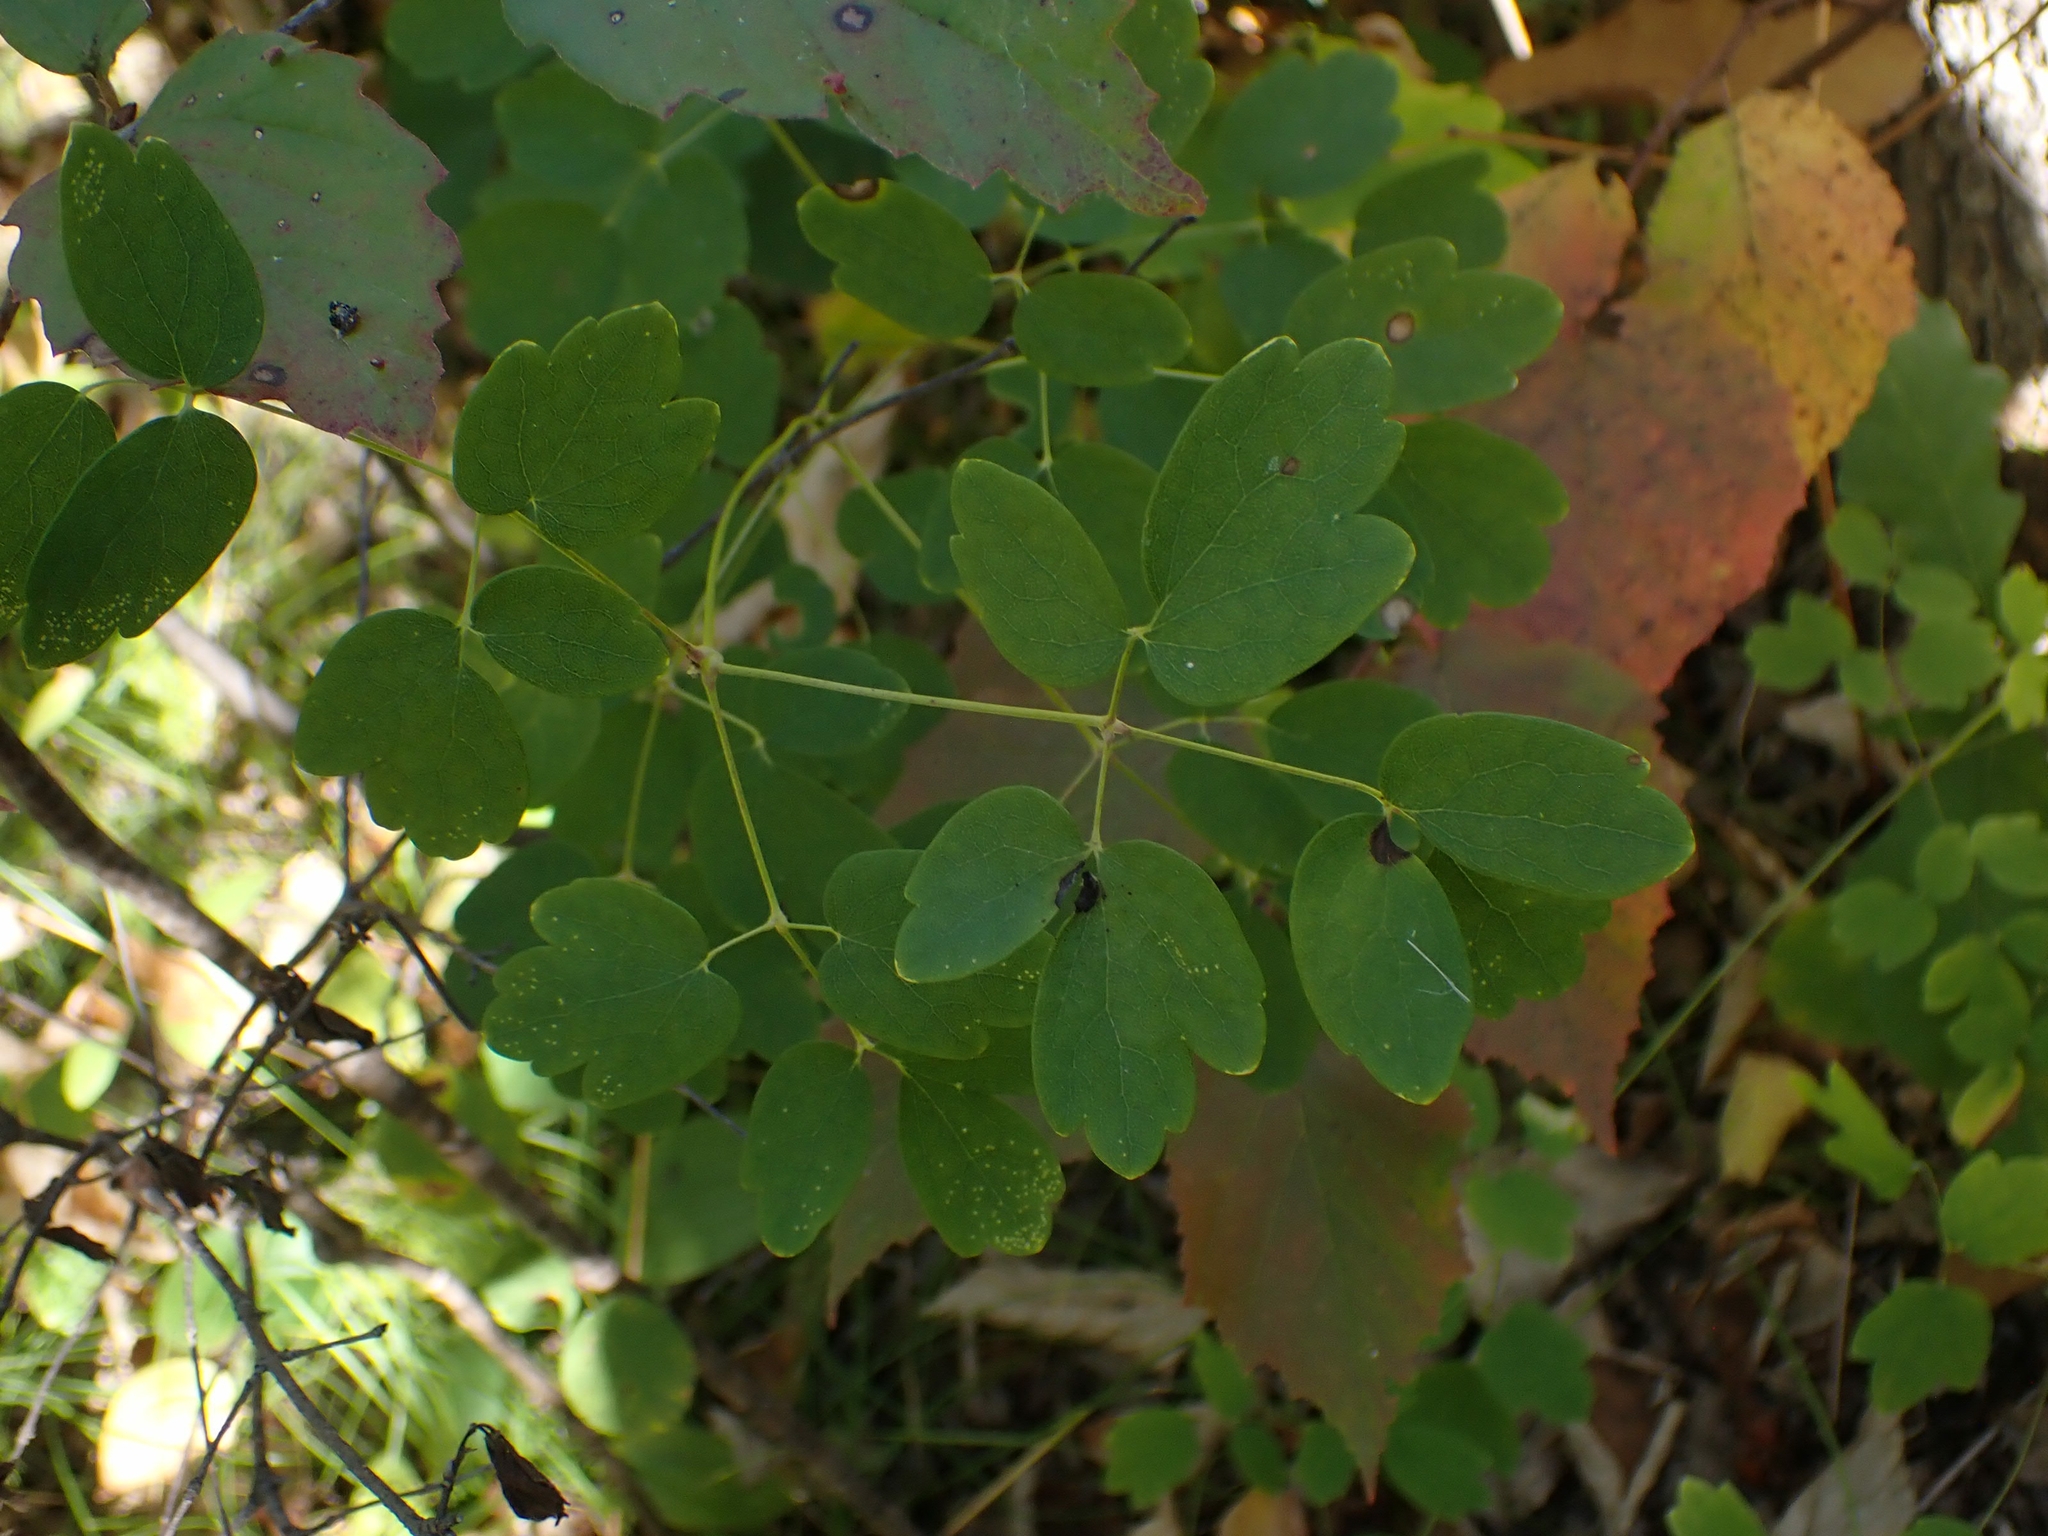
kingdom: Plantae
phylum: Tracheophyta
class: Magnoliopsida
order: Ranunculales
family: Ranunculaceae
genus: Thalictrum
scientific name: Thalictrum dasycarpum
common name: Purple meadow-rue
